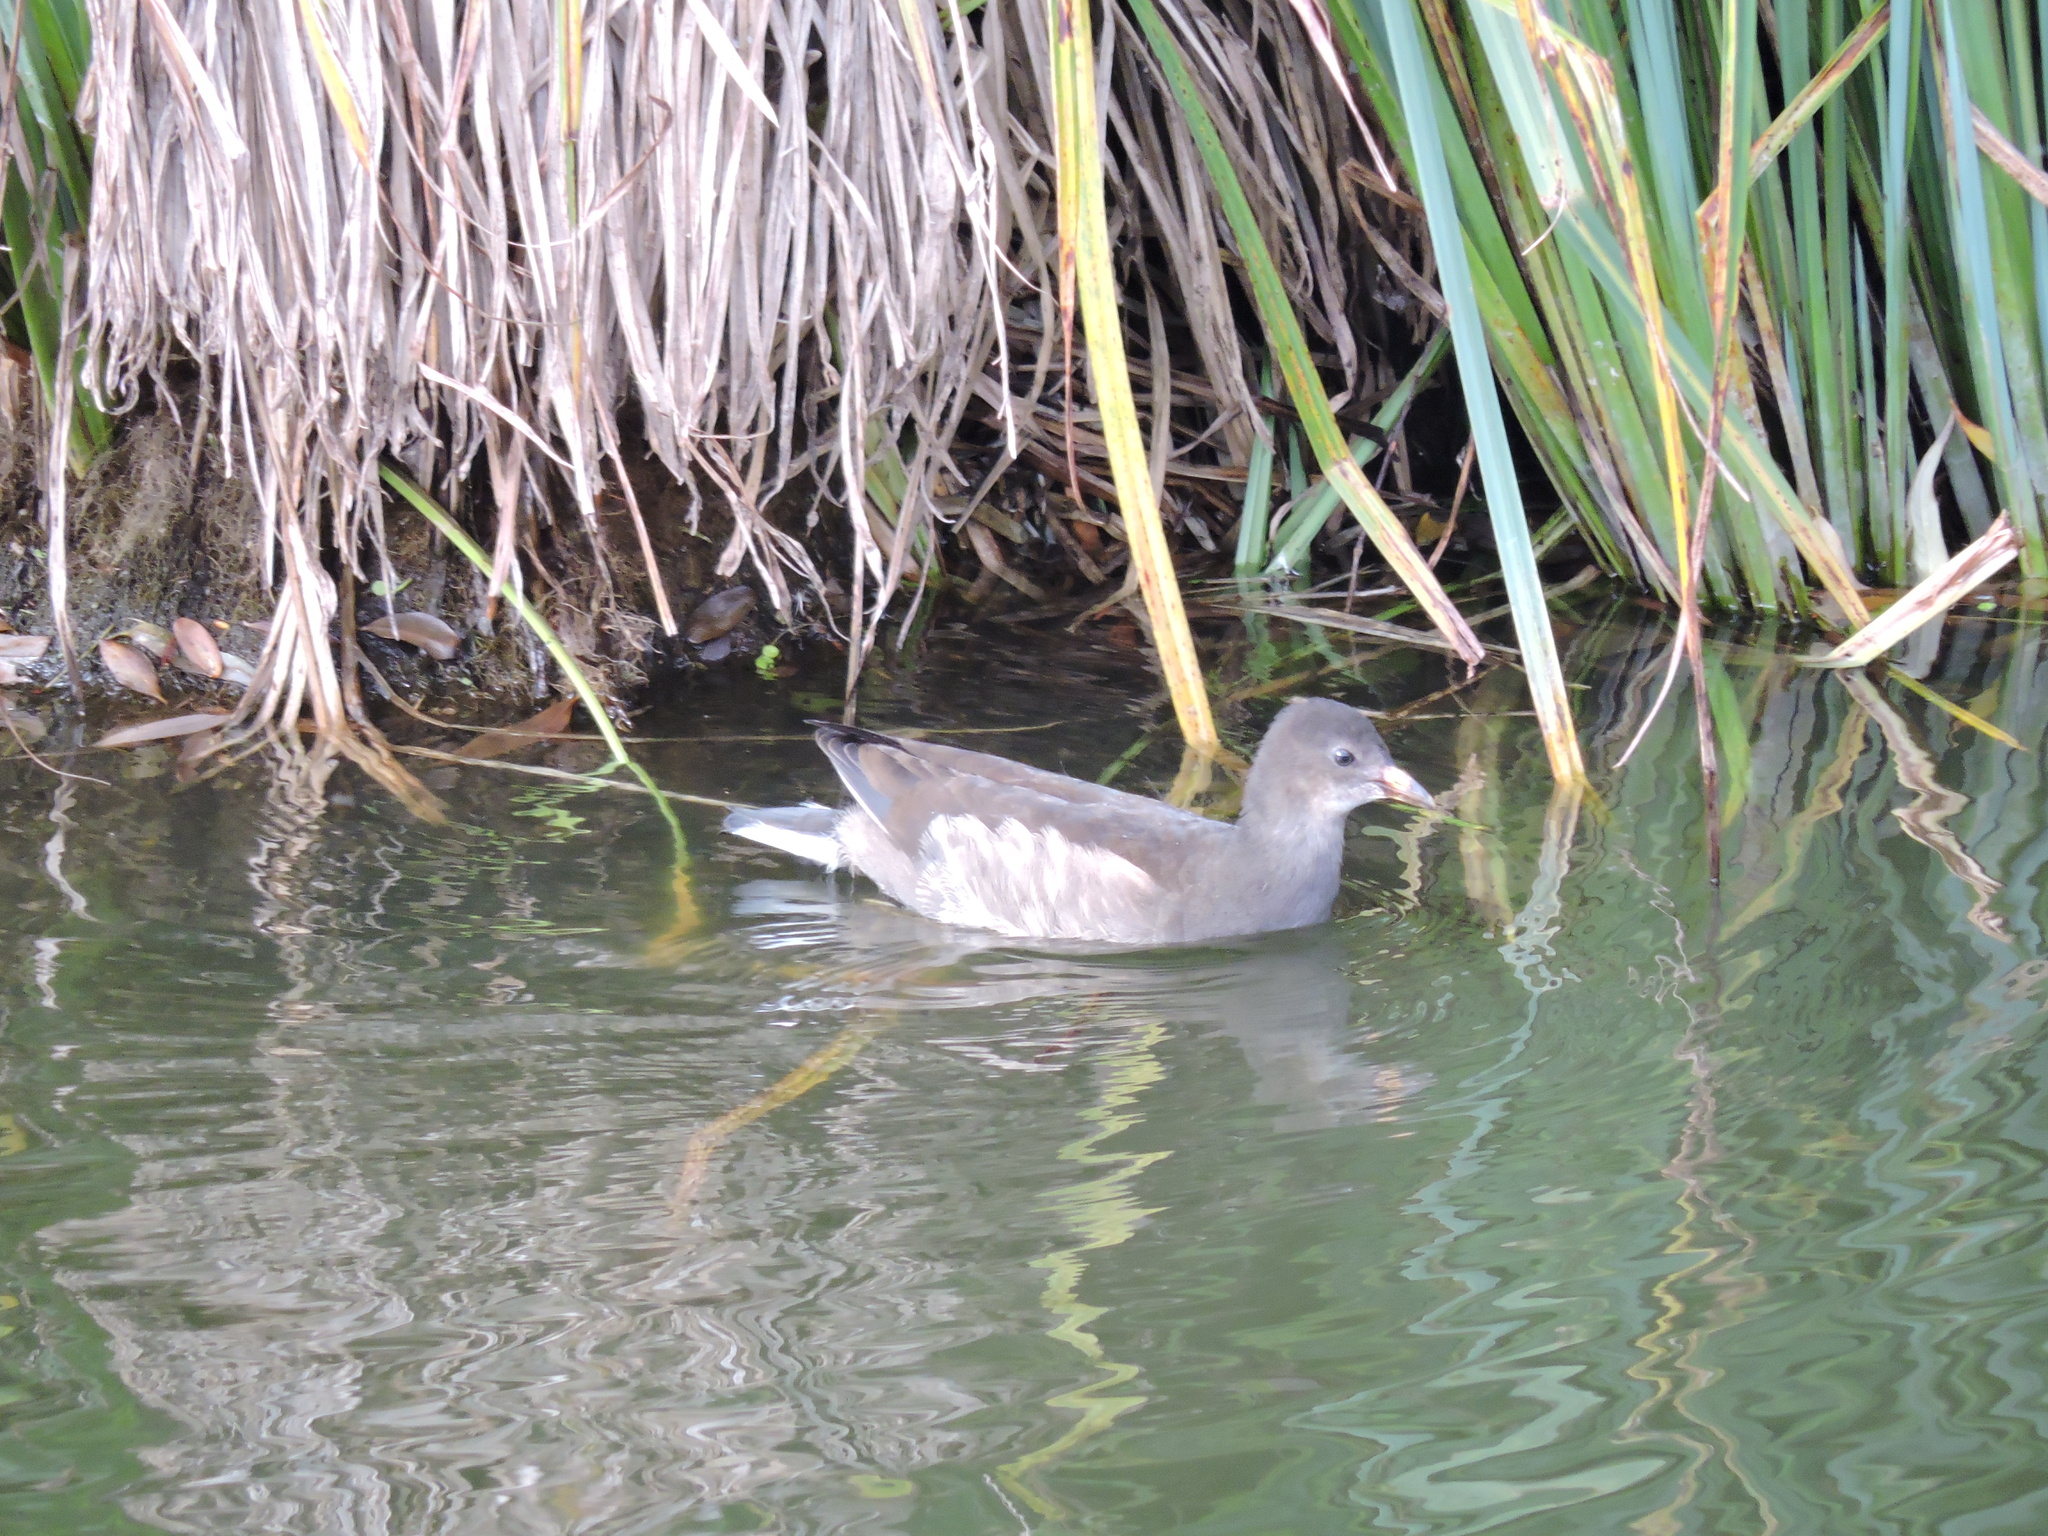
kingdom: Animalia
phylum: Chordata
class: Aves
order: Gruiformes
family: Rallidae
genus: Gallinula
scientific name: Gallinula chloropus
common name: Common moorhen
